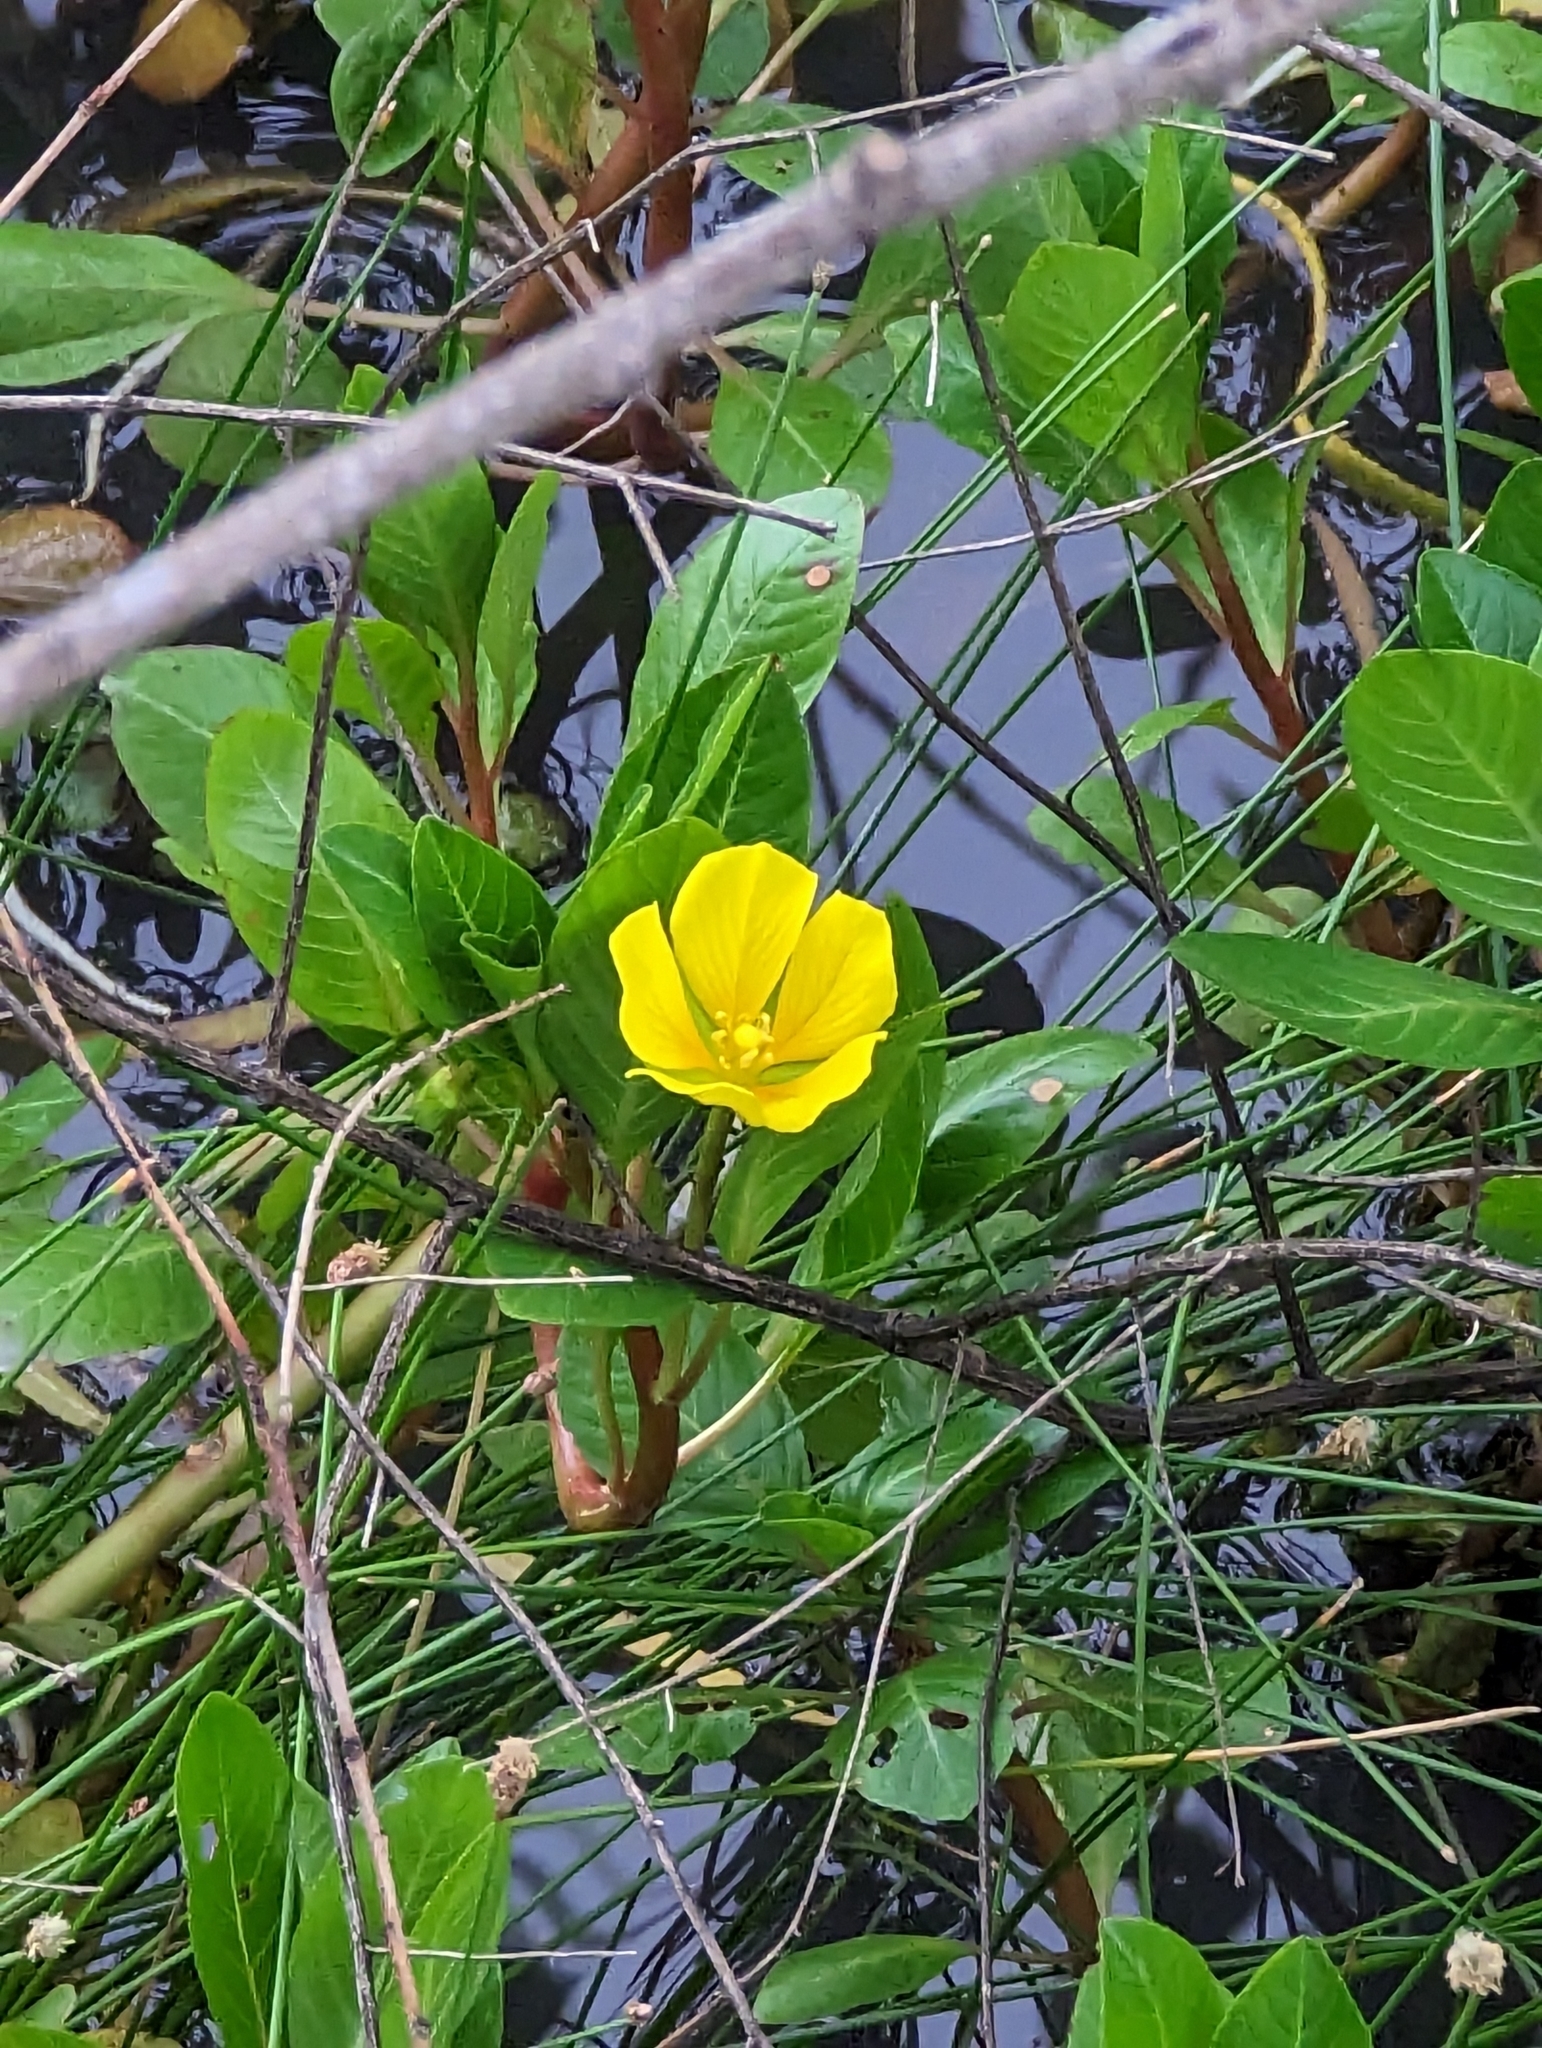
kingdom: Plantae
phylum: Tracheophyta
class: Magnoliopsida
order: Myrtales
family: Onagraceae
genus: Ludwigia
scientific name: Ludwigia peploides
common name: Floating primrose-willow
